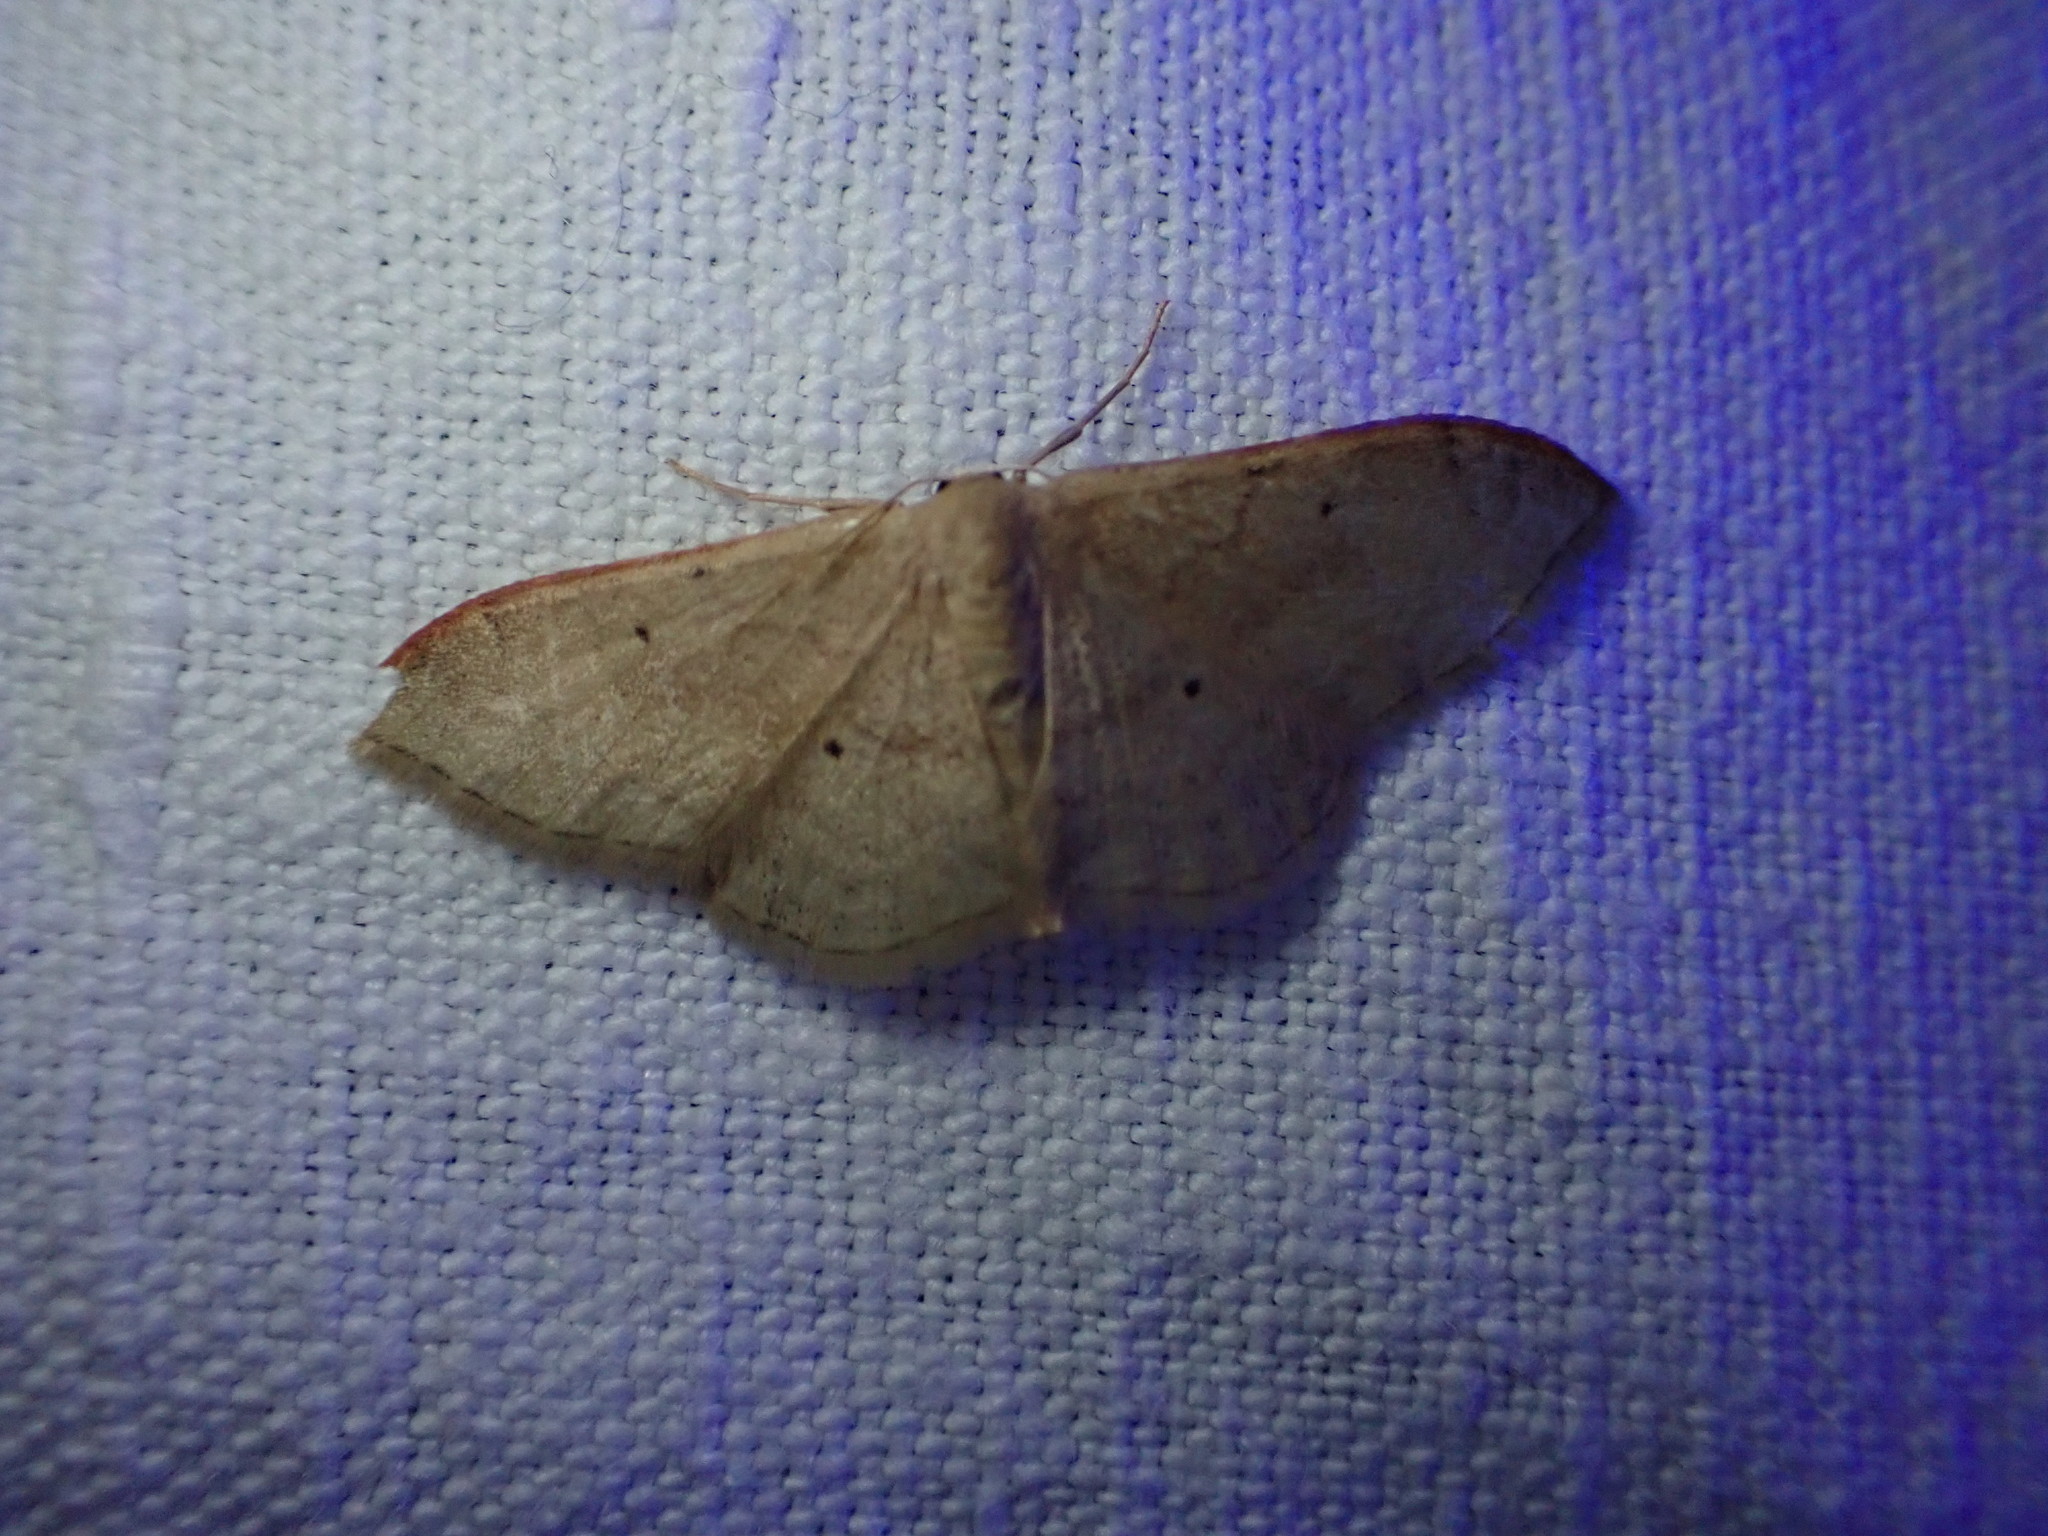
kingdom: Animalia
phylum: Arthropoda
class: Insecta
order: Lepidoptera
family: Geometridae
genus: Idaea
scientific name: Idaea degeneraria
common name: Portland ribbon wave
